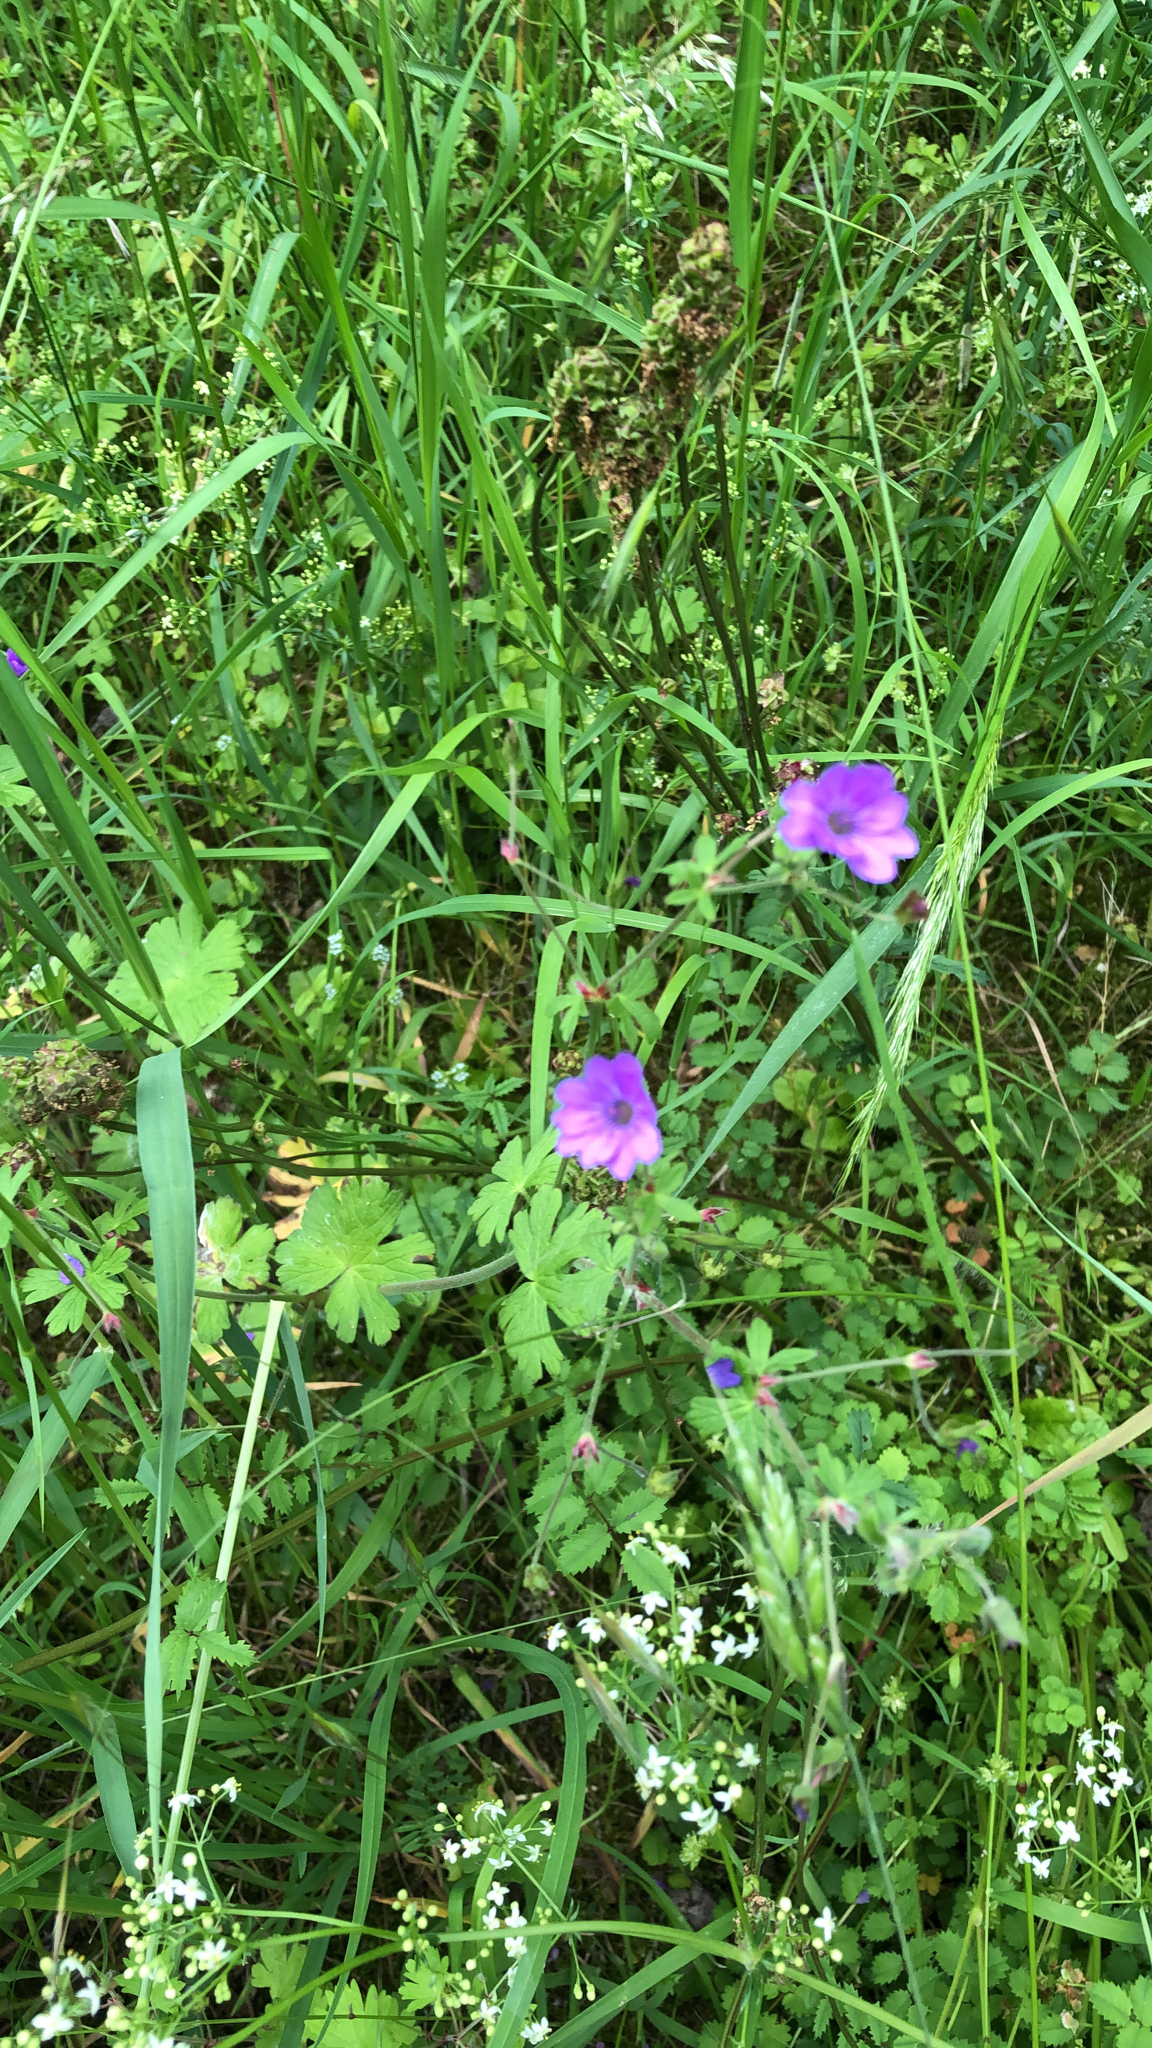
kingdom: Plantae
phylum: Tracheophyta
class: Magnoliopsida
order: Geraniales
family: Geraniaceae
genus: Geranium
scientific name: Geranium pyrenaicum
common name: Hedgerow crane's-bill
